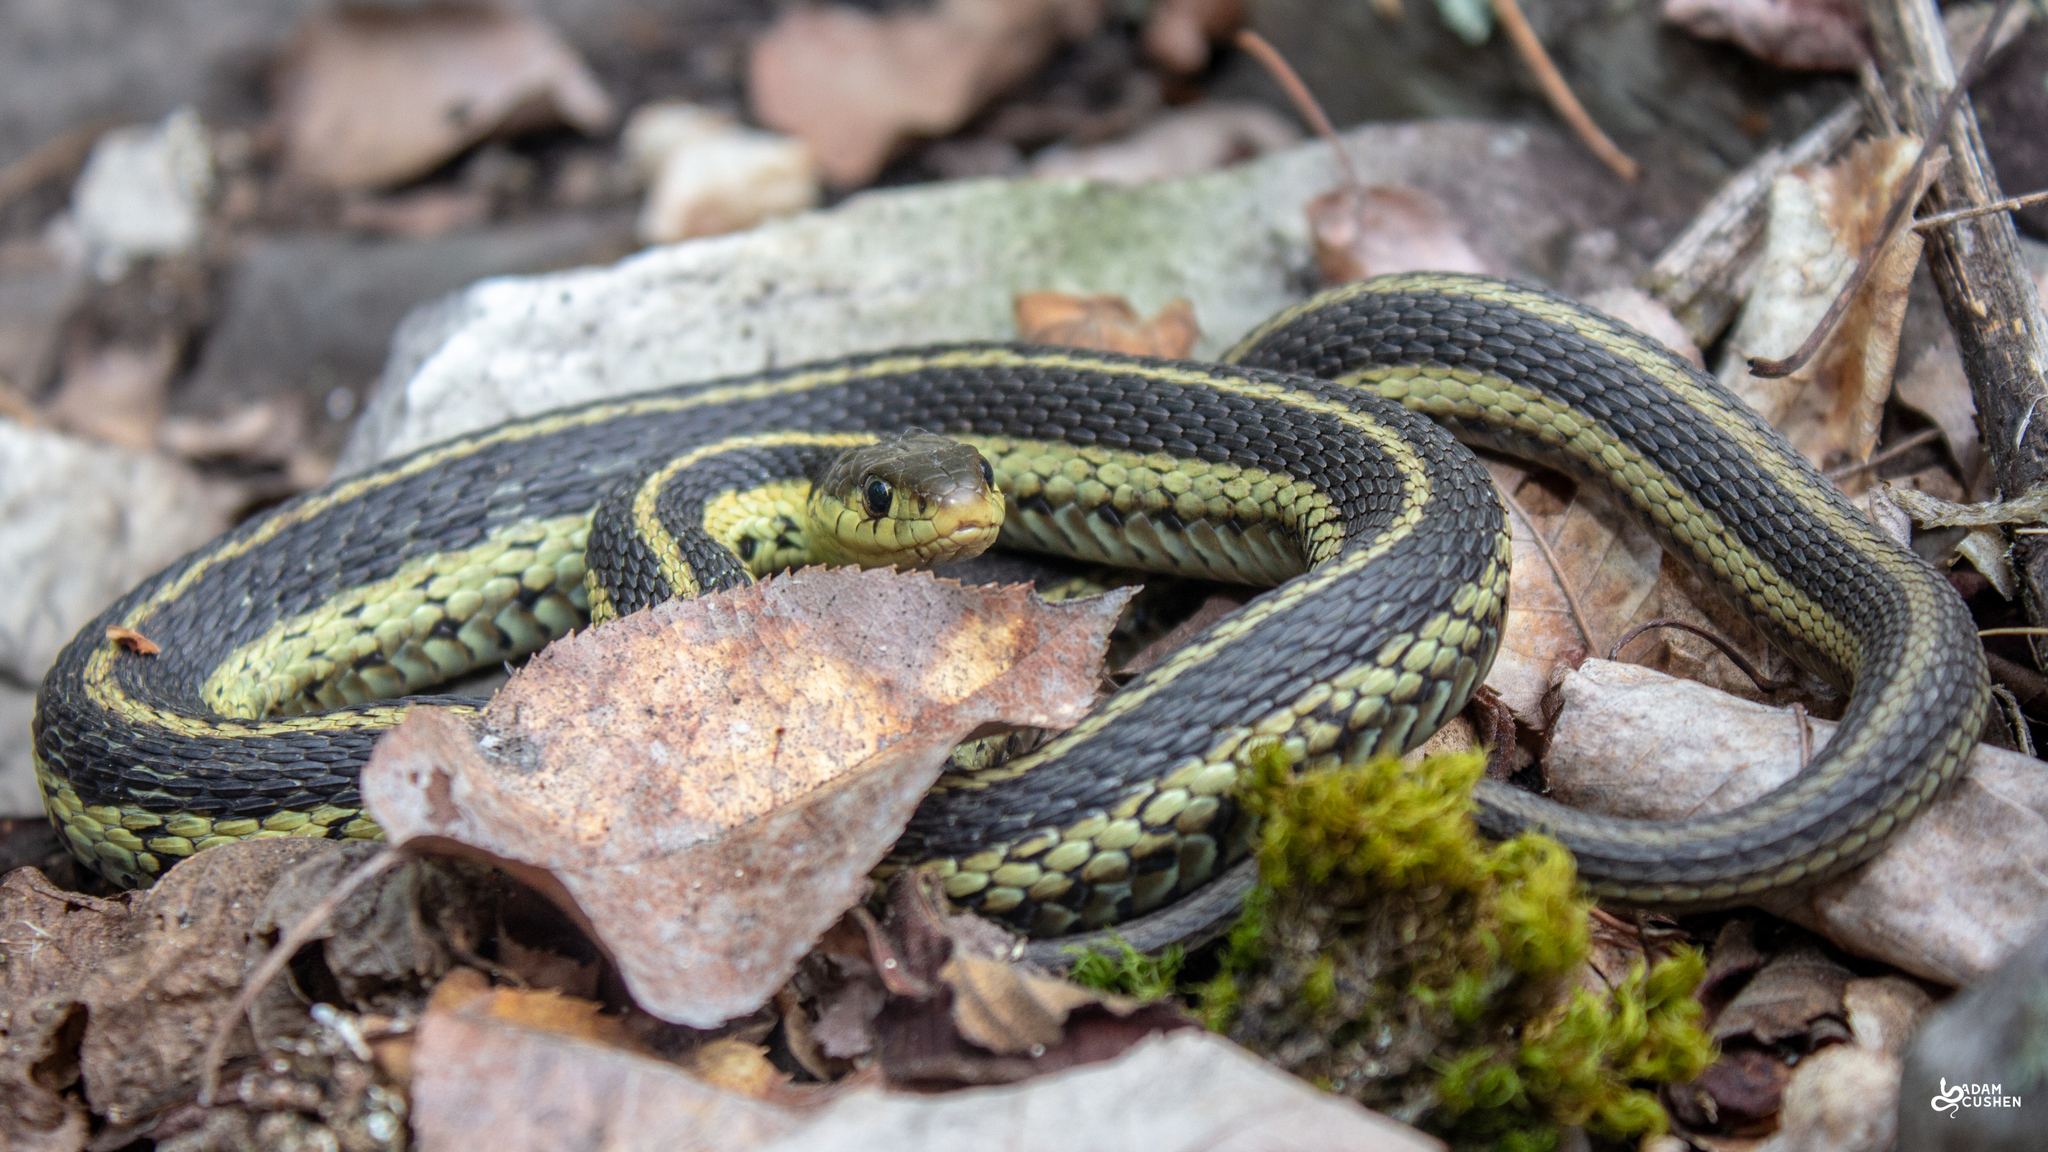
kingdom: Animalia
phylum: Chordata
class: Squamata
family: Colubridae
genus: Thamnophis
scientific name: Thamnophis sirtalis
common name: Common garter snake
